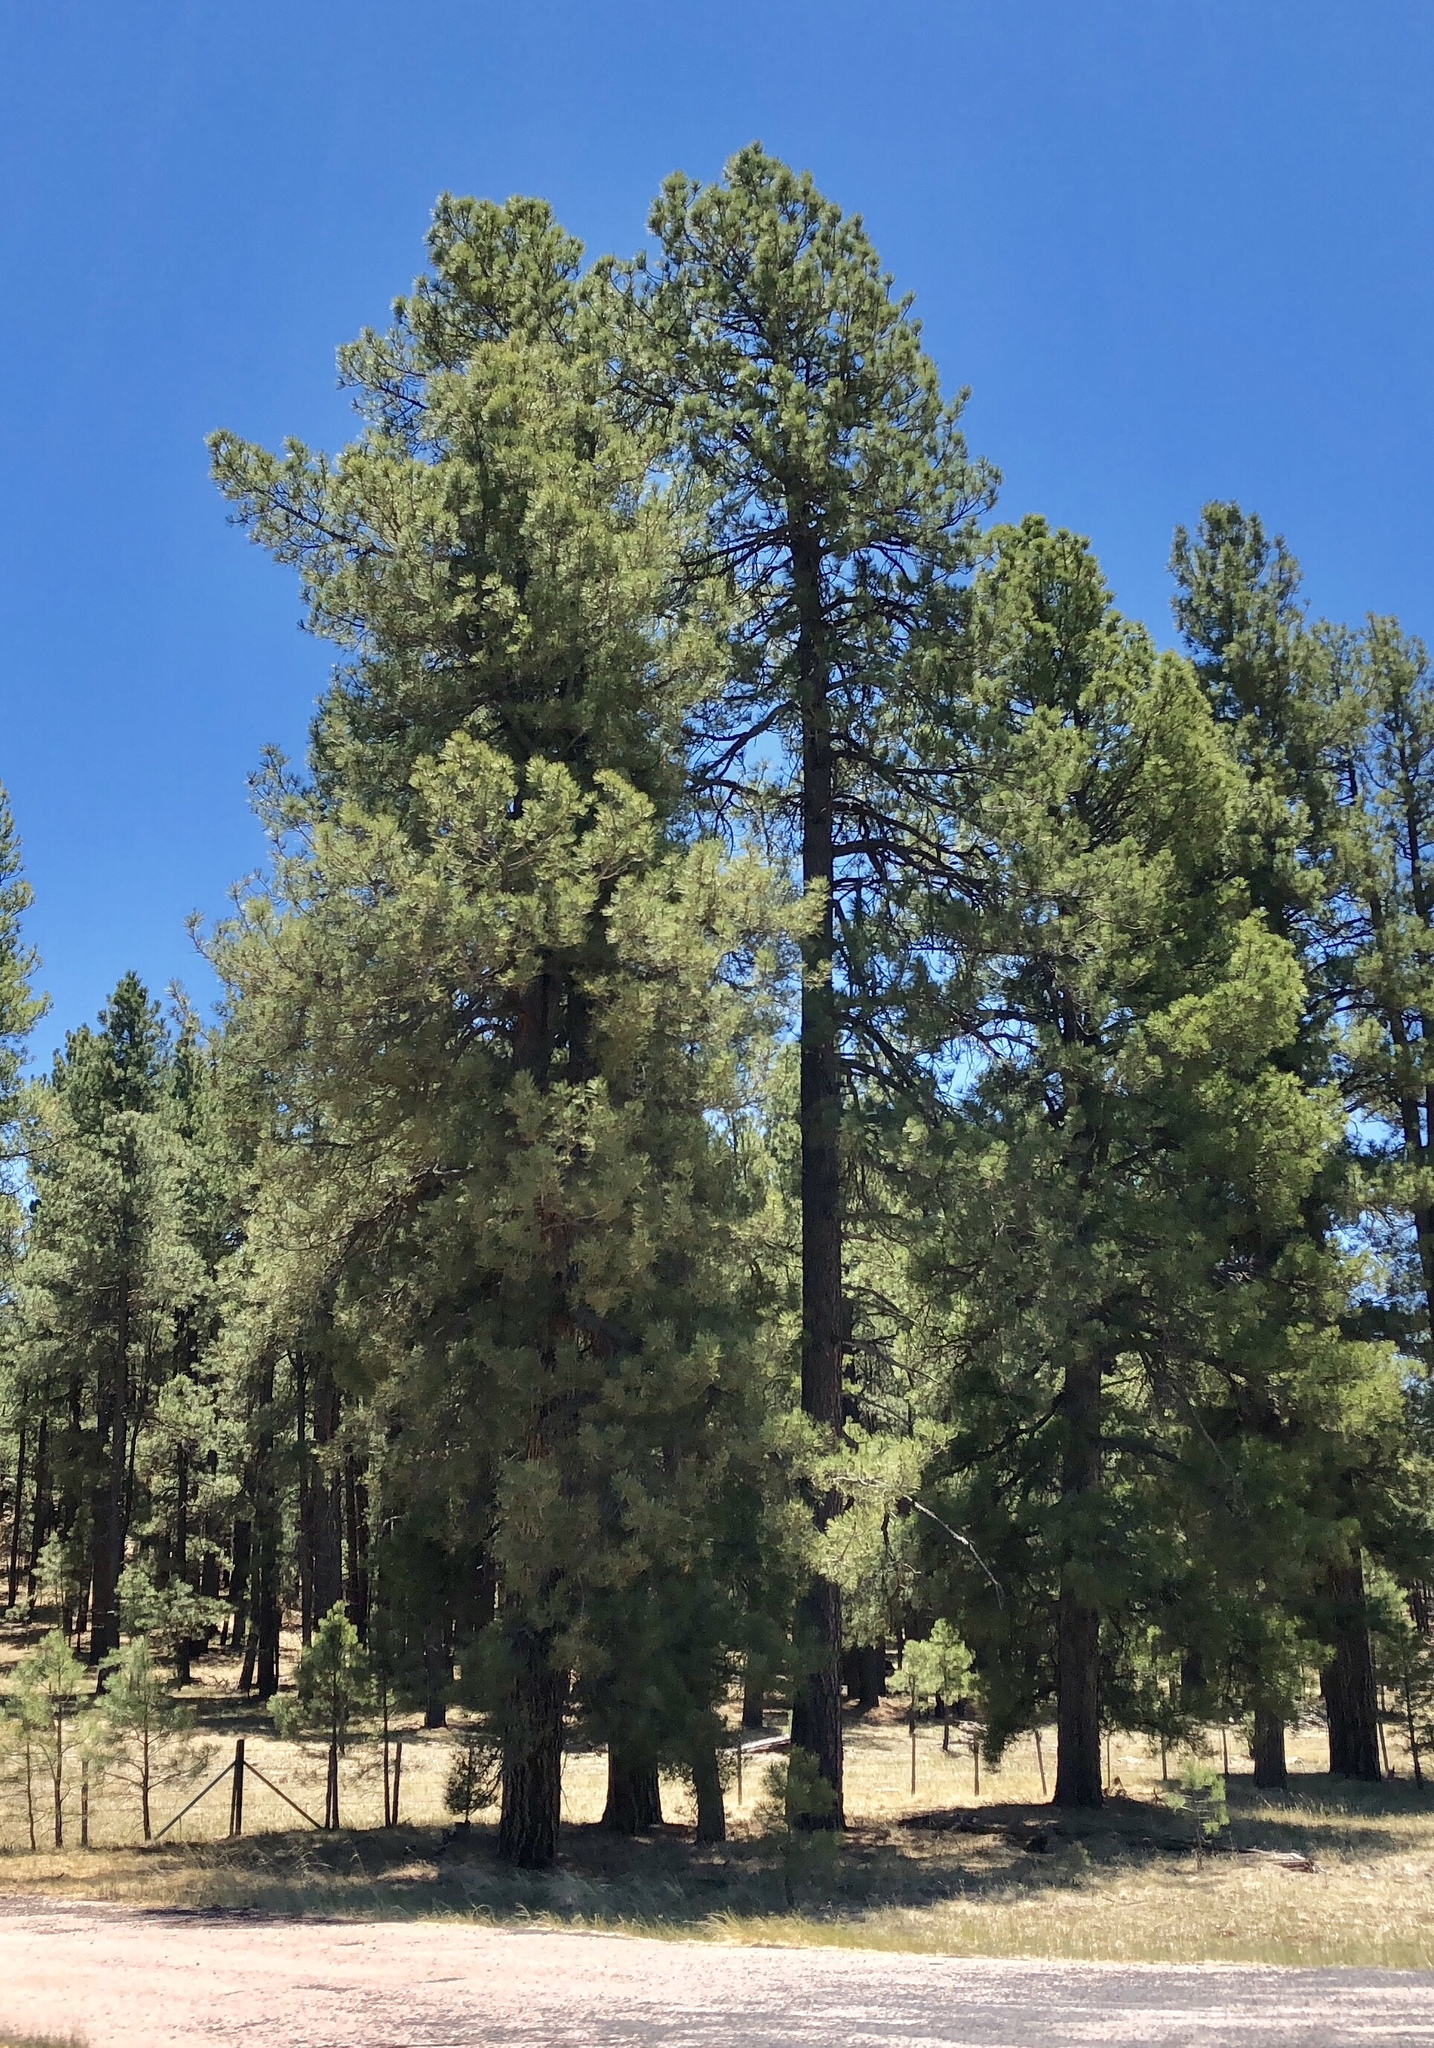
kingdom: Plantae
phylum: Tracheophyta
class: Pinopsida
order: Pinales
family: Pinaceae
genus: Pinus
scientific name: Pinus ponderosa
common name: Western yellow-pine
